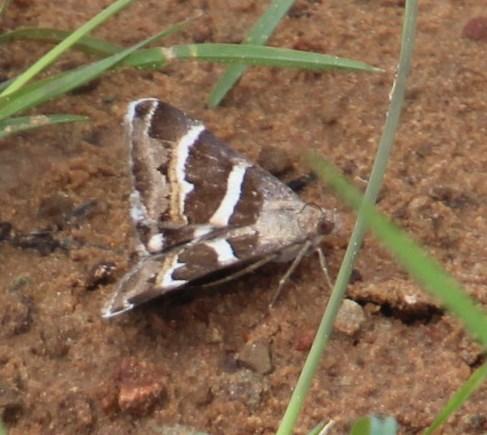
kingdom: Animalia
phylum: Arthropoda
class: Insecta
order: Lepidoptera
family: Erebidae
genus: Grammodes
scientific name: Grammodes stolida
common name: Geometrician
